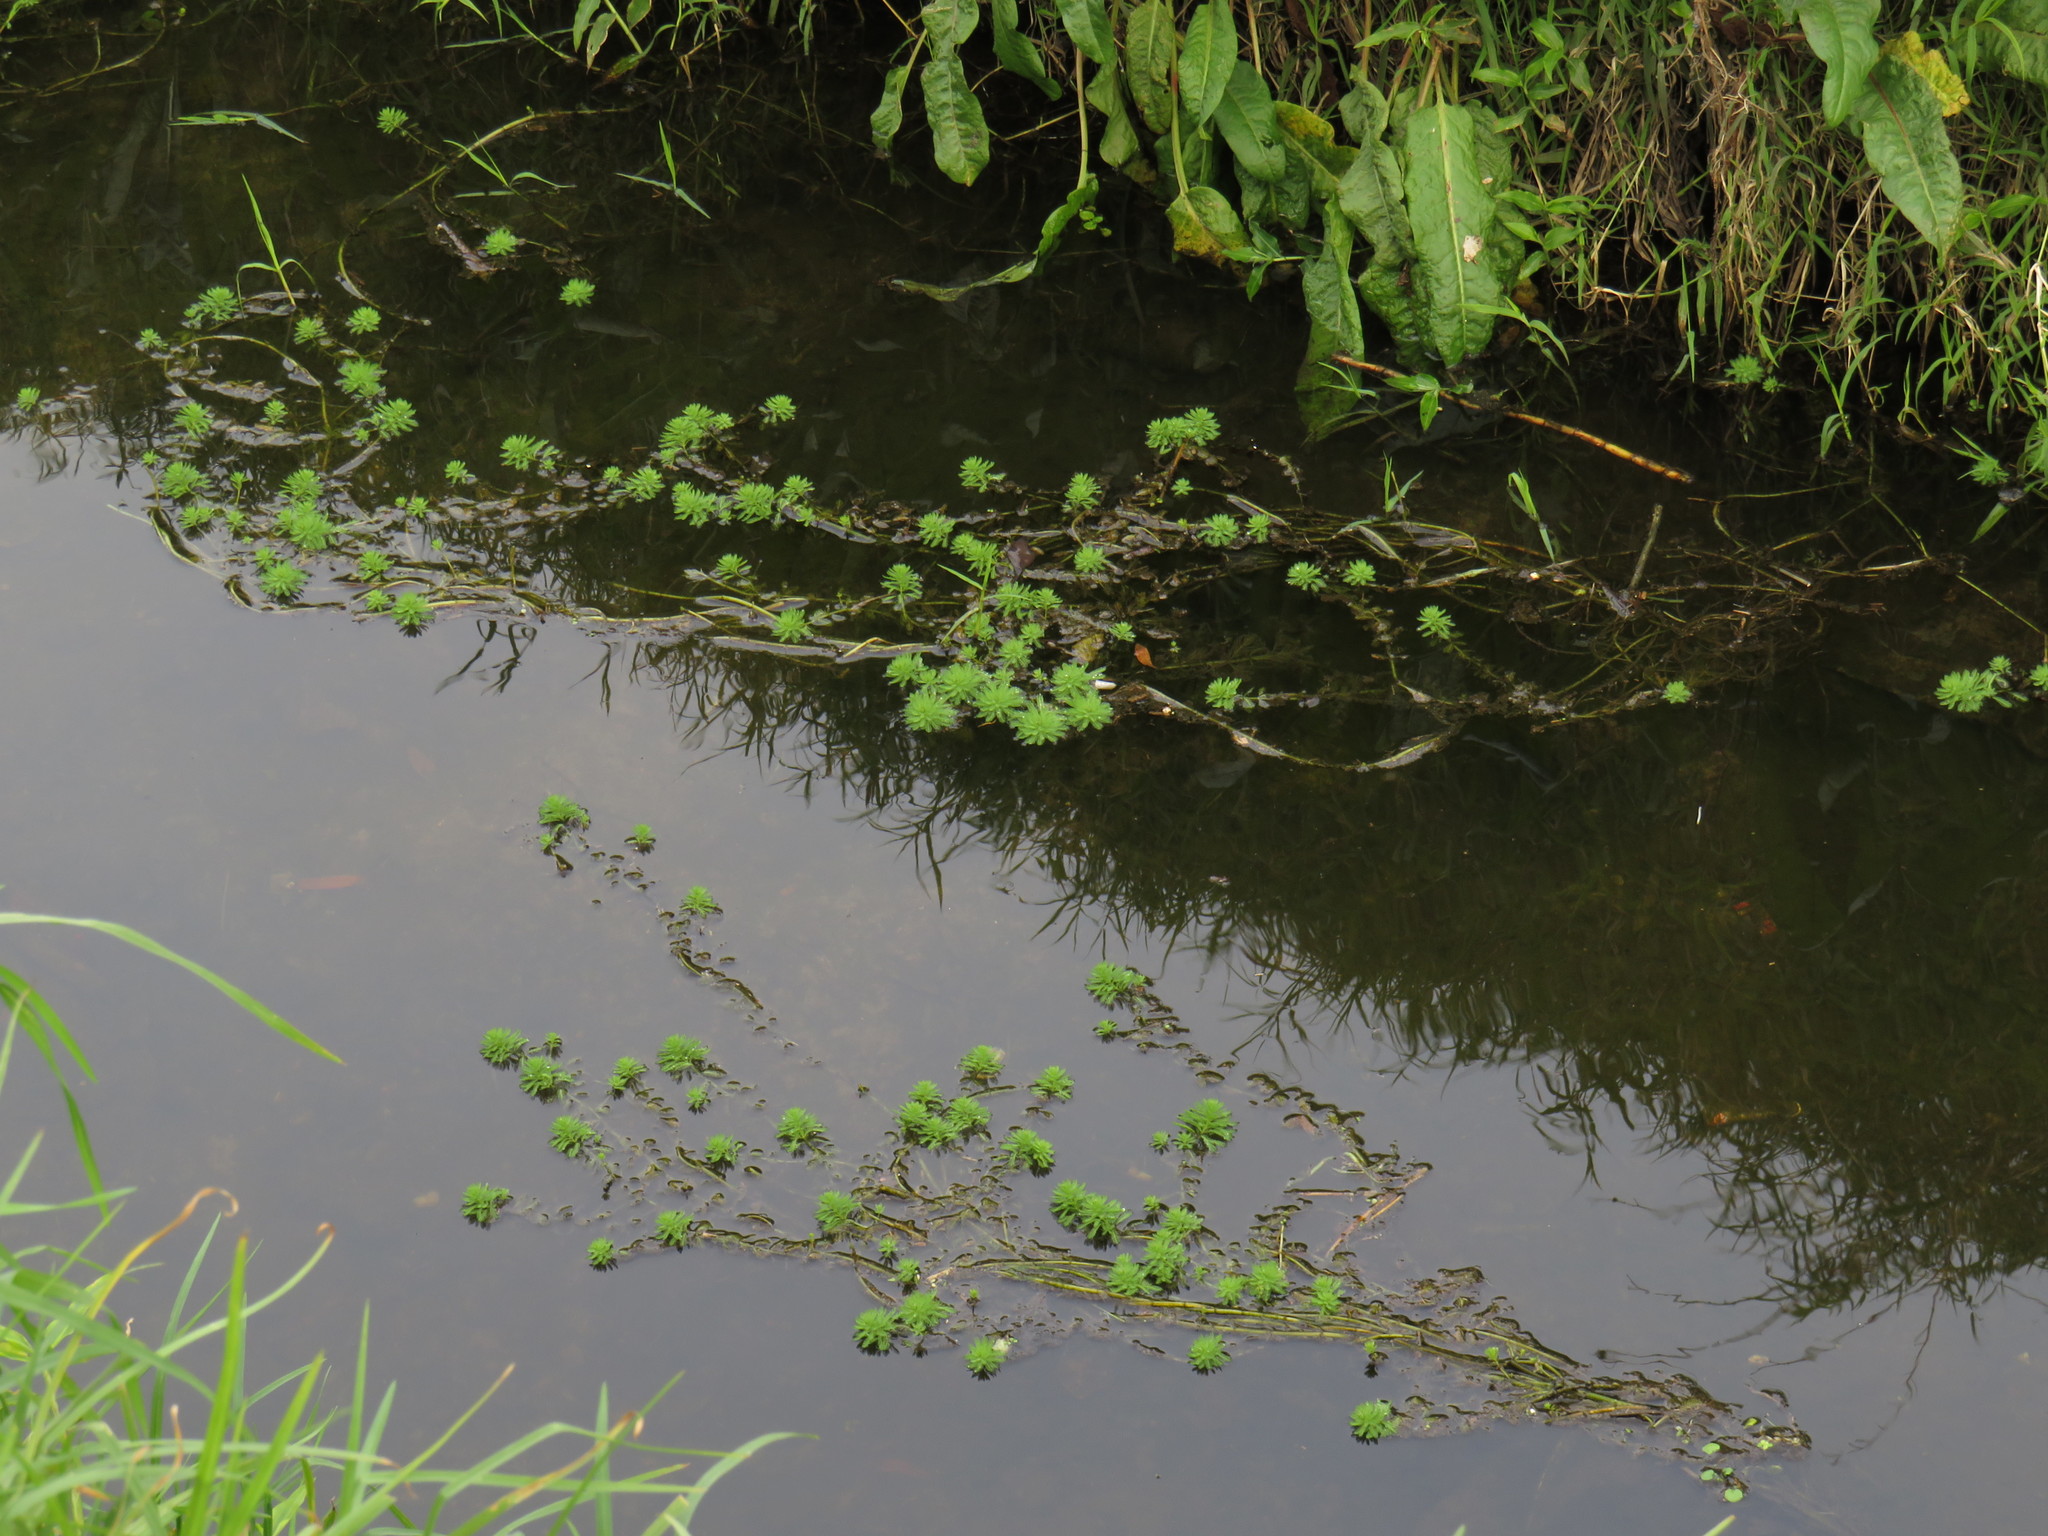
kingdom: Plantae
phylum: Tracheophyta
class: Magnoliopsida
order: Saxifragales
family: Haloragaceae
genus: Myriophyllum
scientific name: Myriophyllum aquaticum
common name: Parrot's feather
